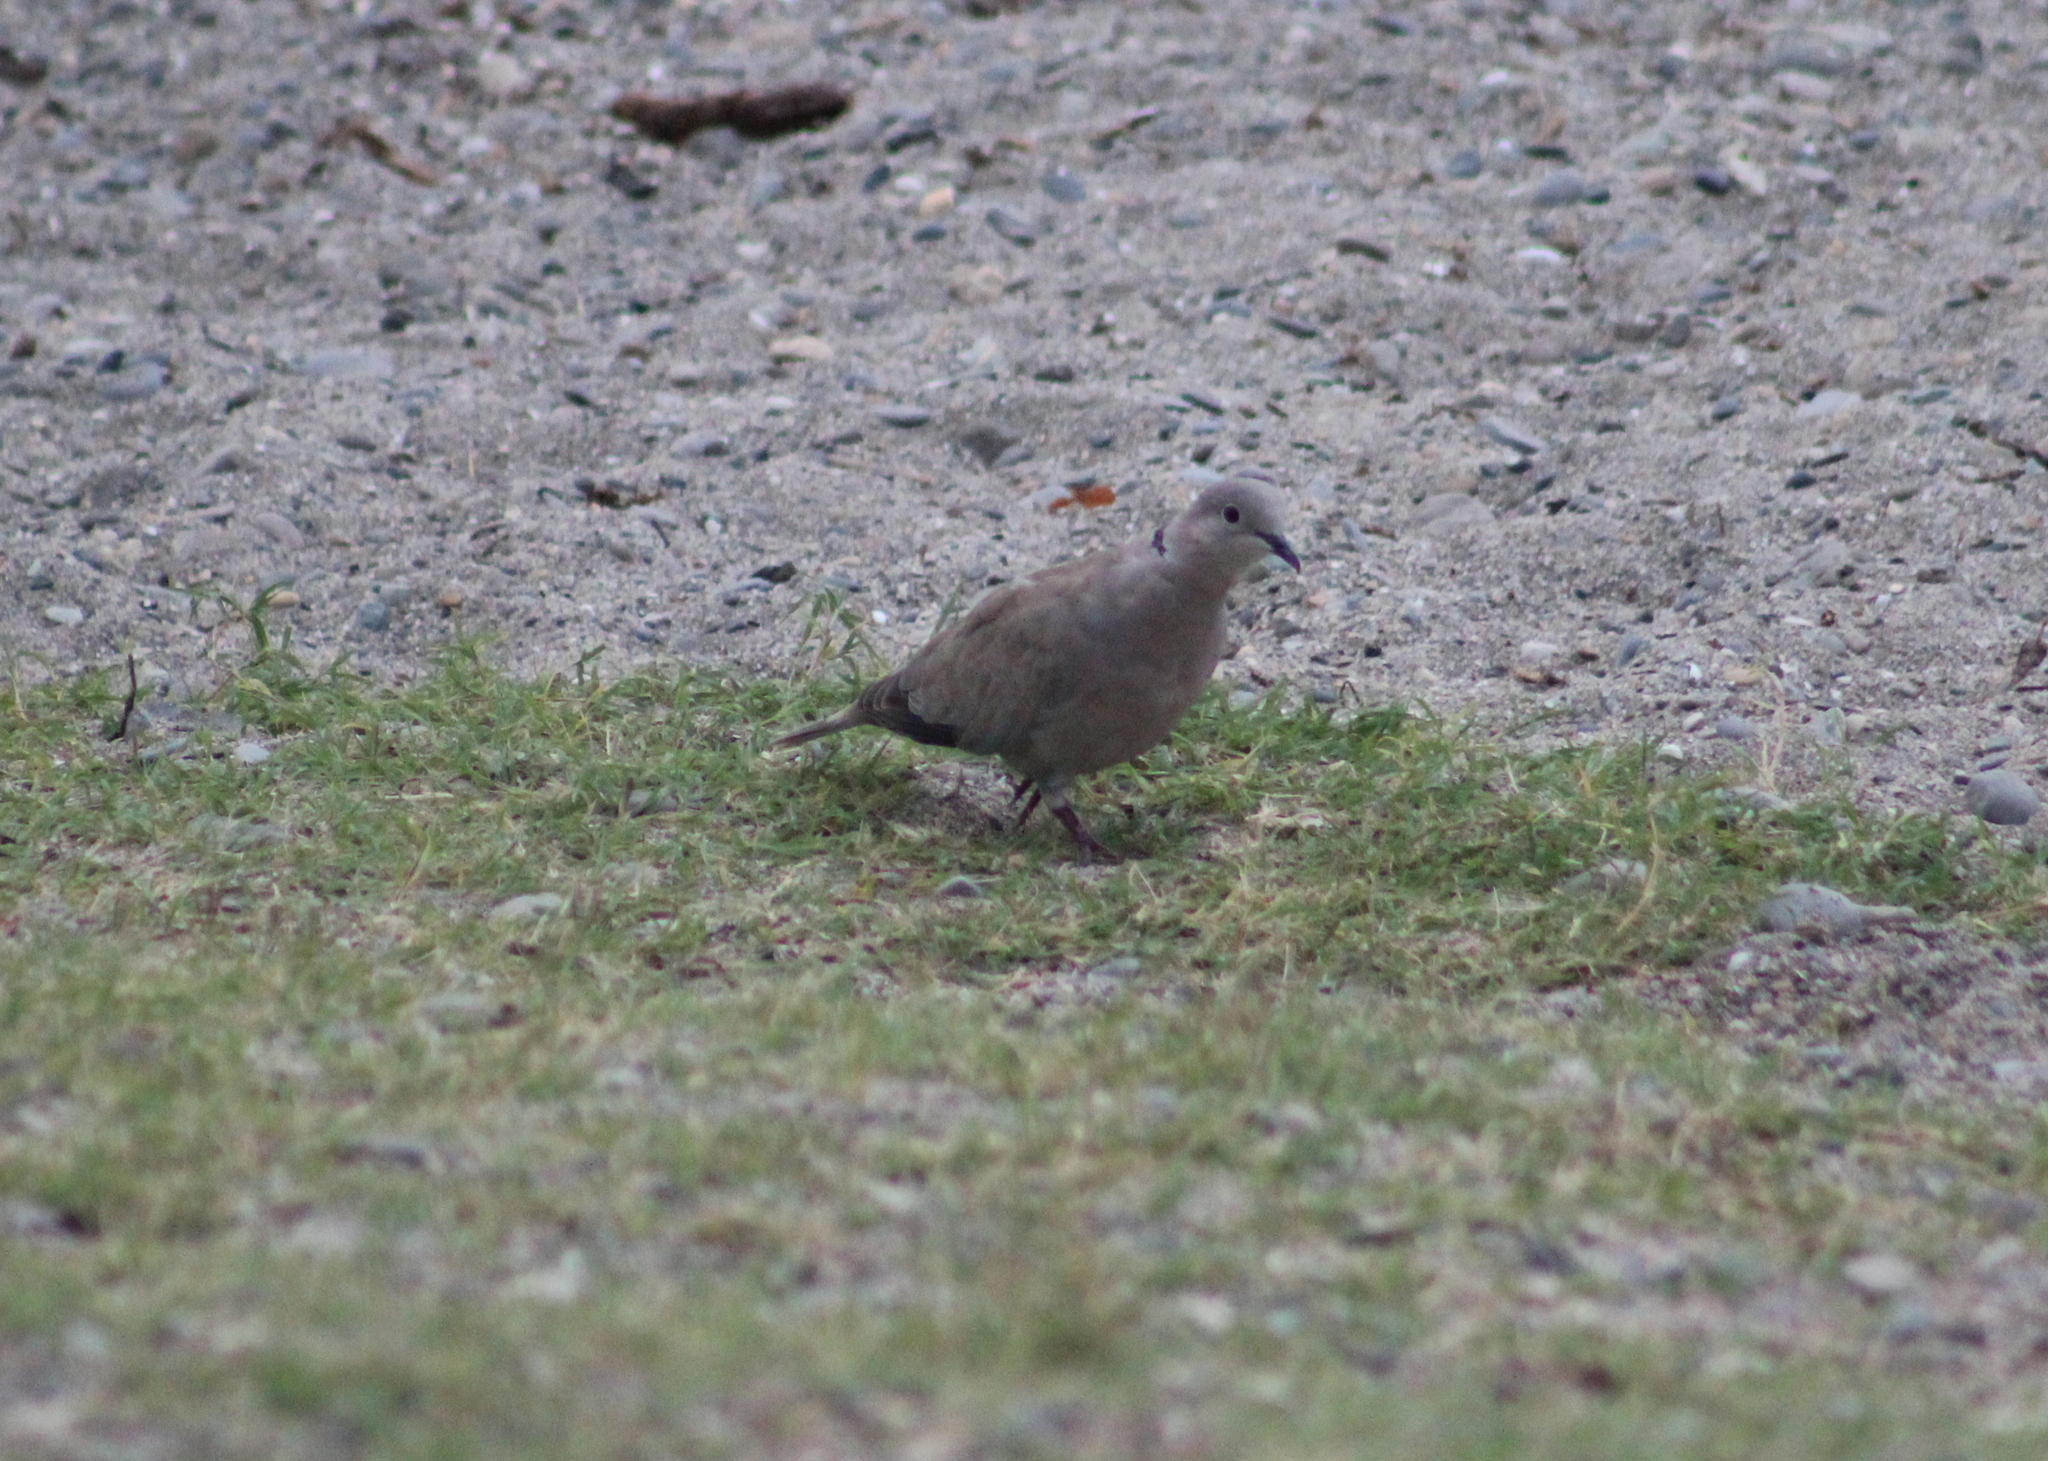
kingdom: Animalia
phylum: Chordata
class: Aves
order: Columbiformes
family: Columbidae
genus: Streptopelia
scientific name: Streptopelia decaocto
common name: Eurasian collared dove
